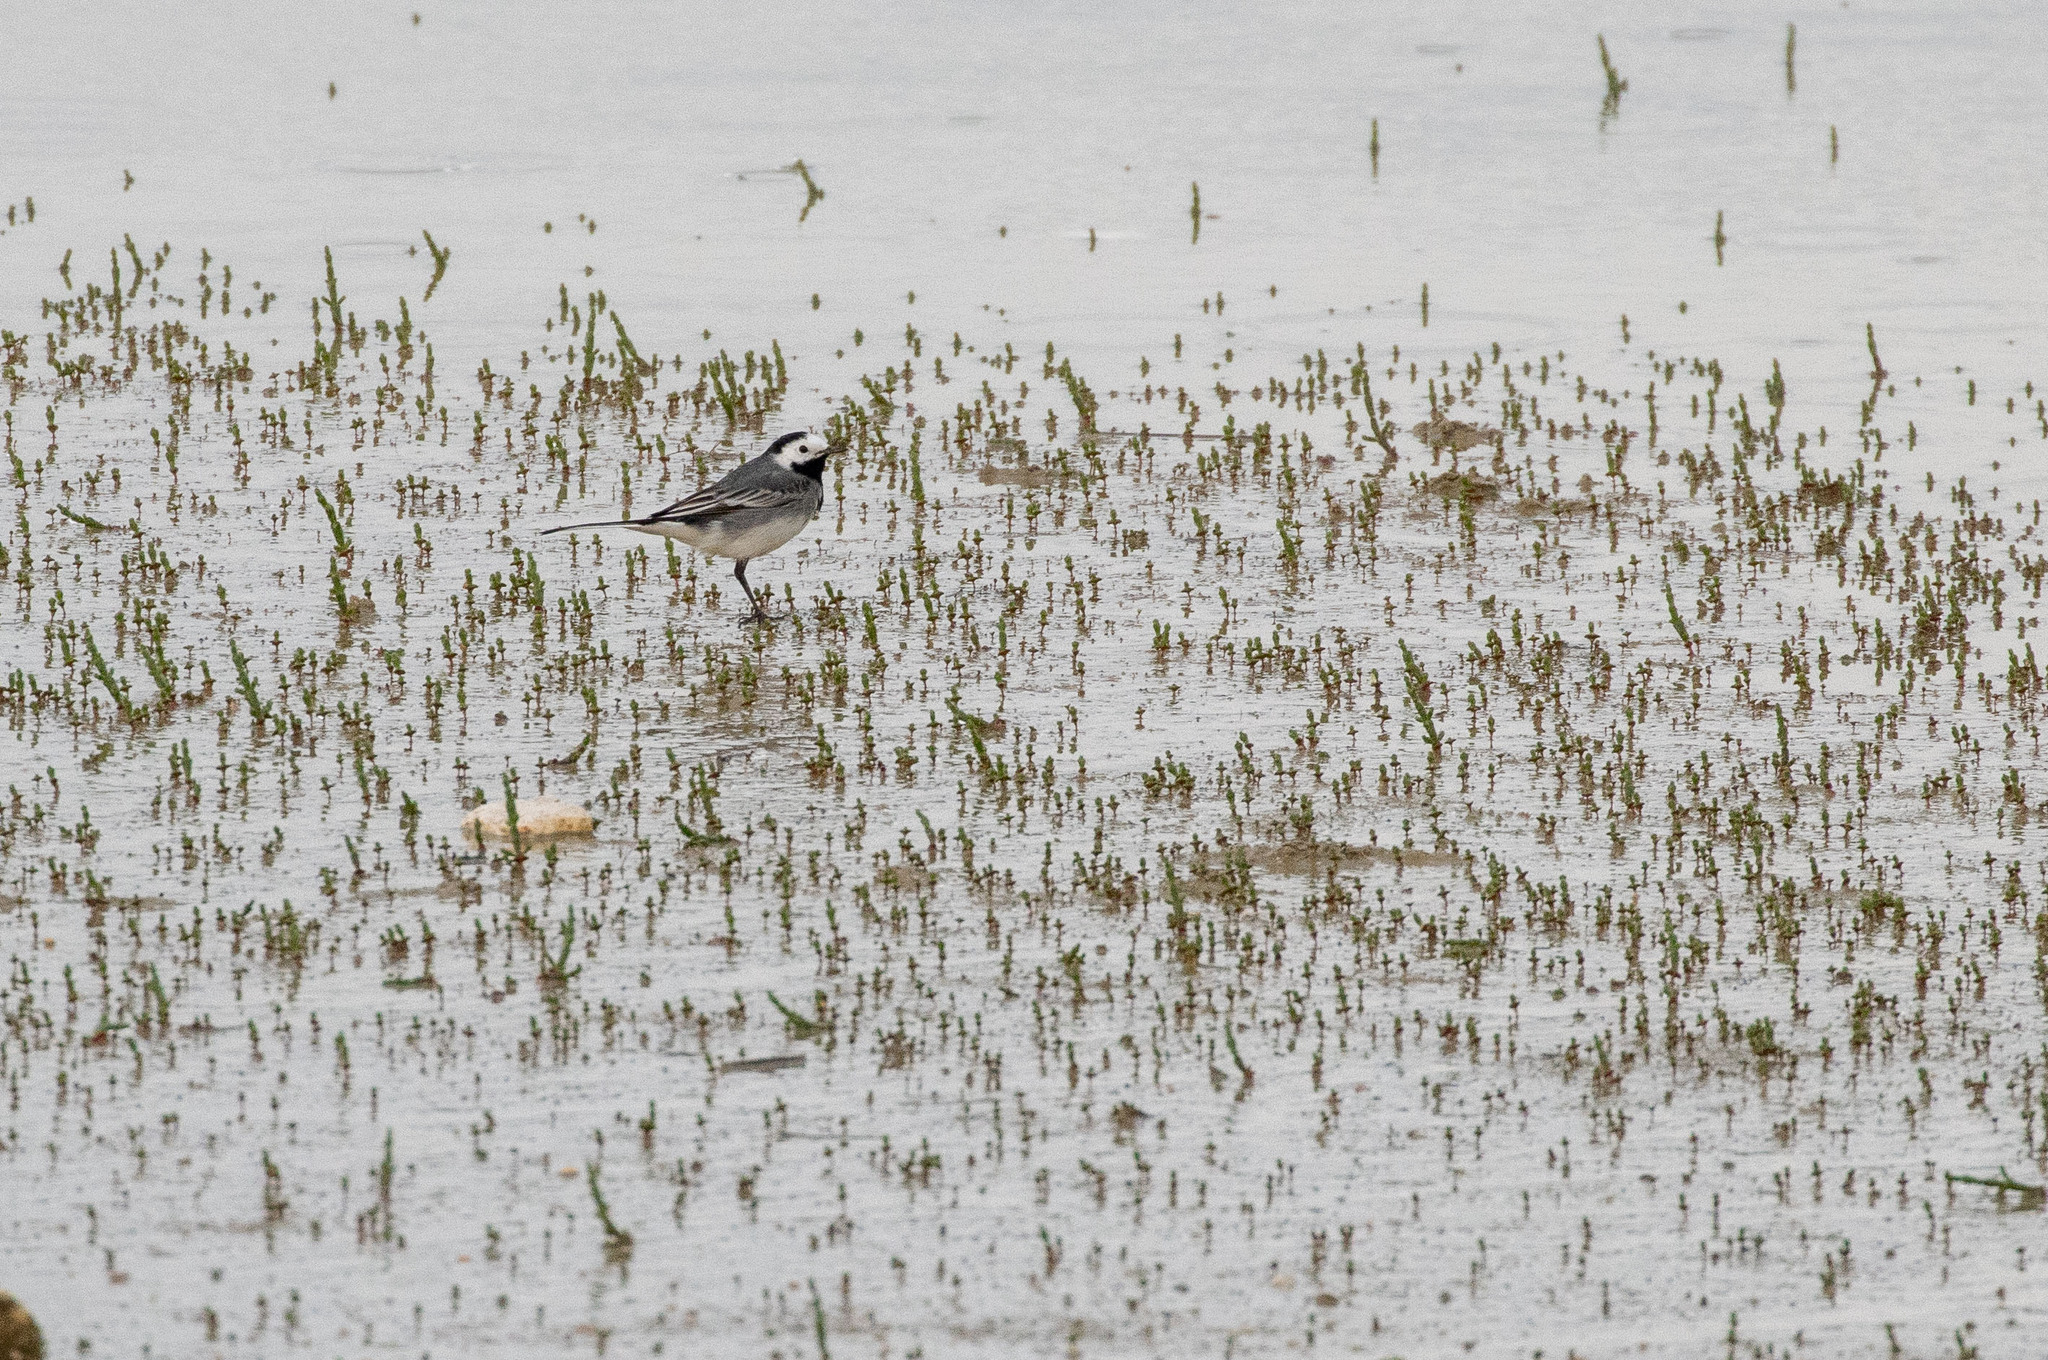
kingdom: Animalia
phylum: Chordata
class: Aves
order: Passeriformes
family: Motacillidae
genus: Motacilla
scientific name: Motacilla alba
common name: White wagtail
